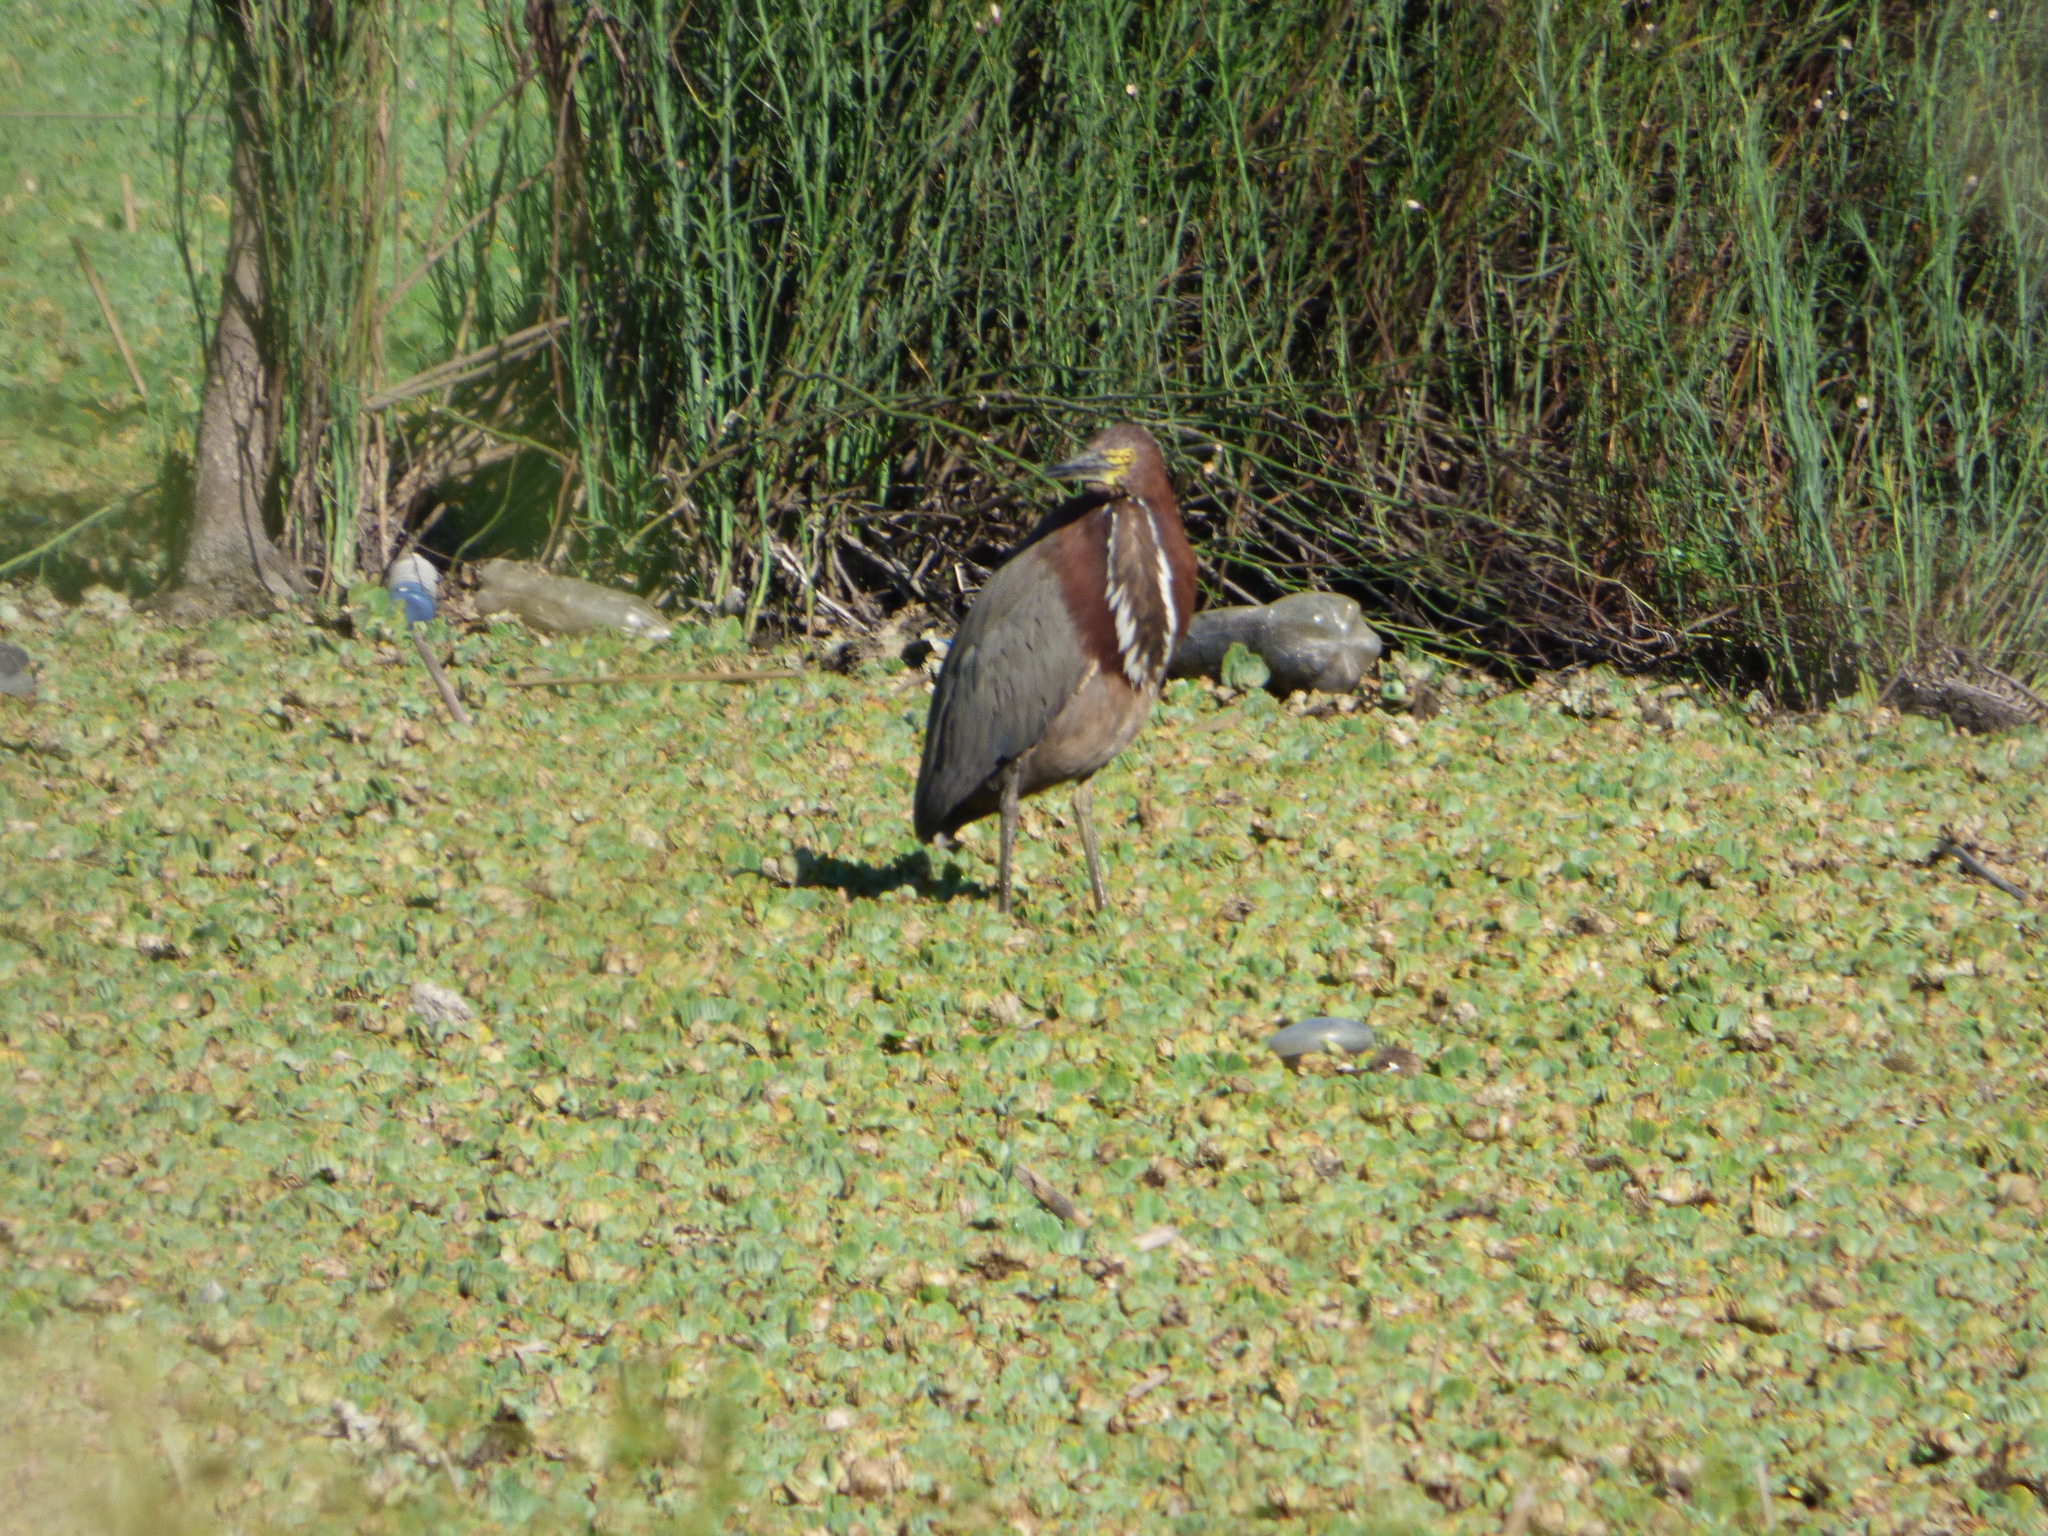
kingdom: Animalia
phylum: Chordata
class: Aves
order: Pelecaniformes
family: Ardeidae
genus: Tigrisoma
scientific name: Tigrisoma lineatum
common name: Rufescent tiger-heron
